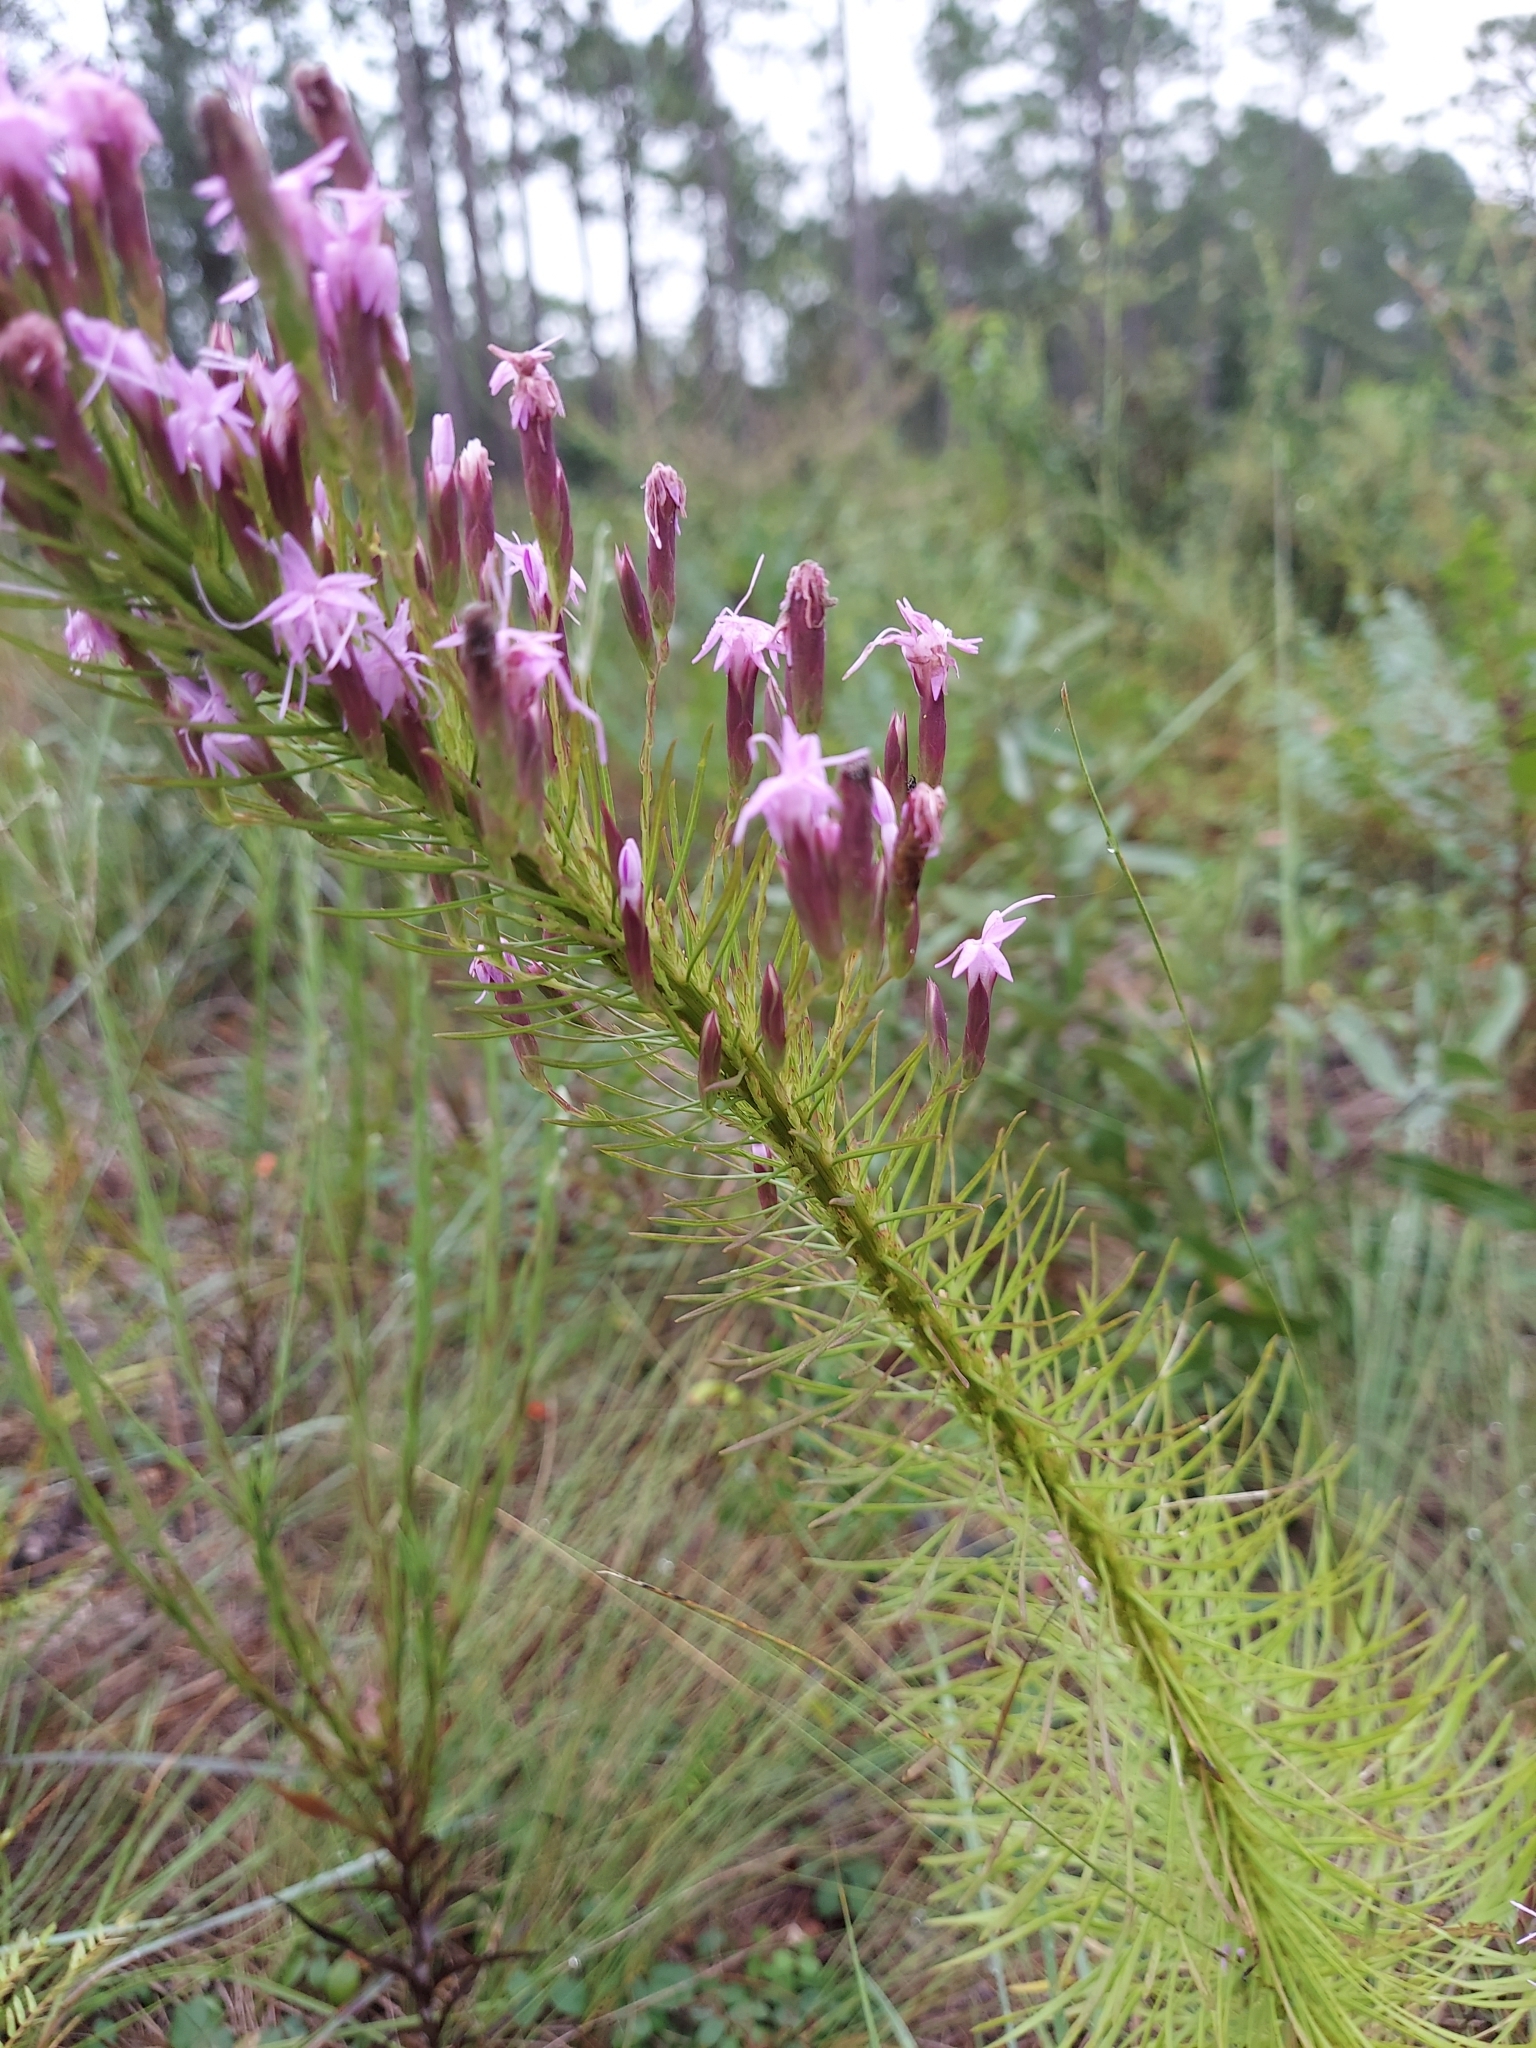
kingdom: Plantae
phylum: Tracheophyta
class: Magnoliopsida
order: Asterales
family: Asteraceae
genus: Liatris
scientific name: Liatris pauciflora
